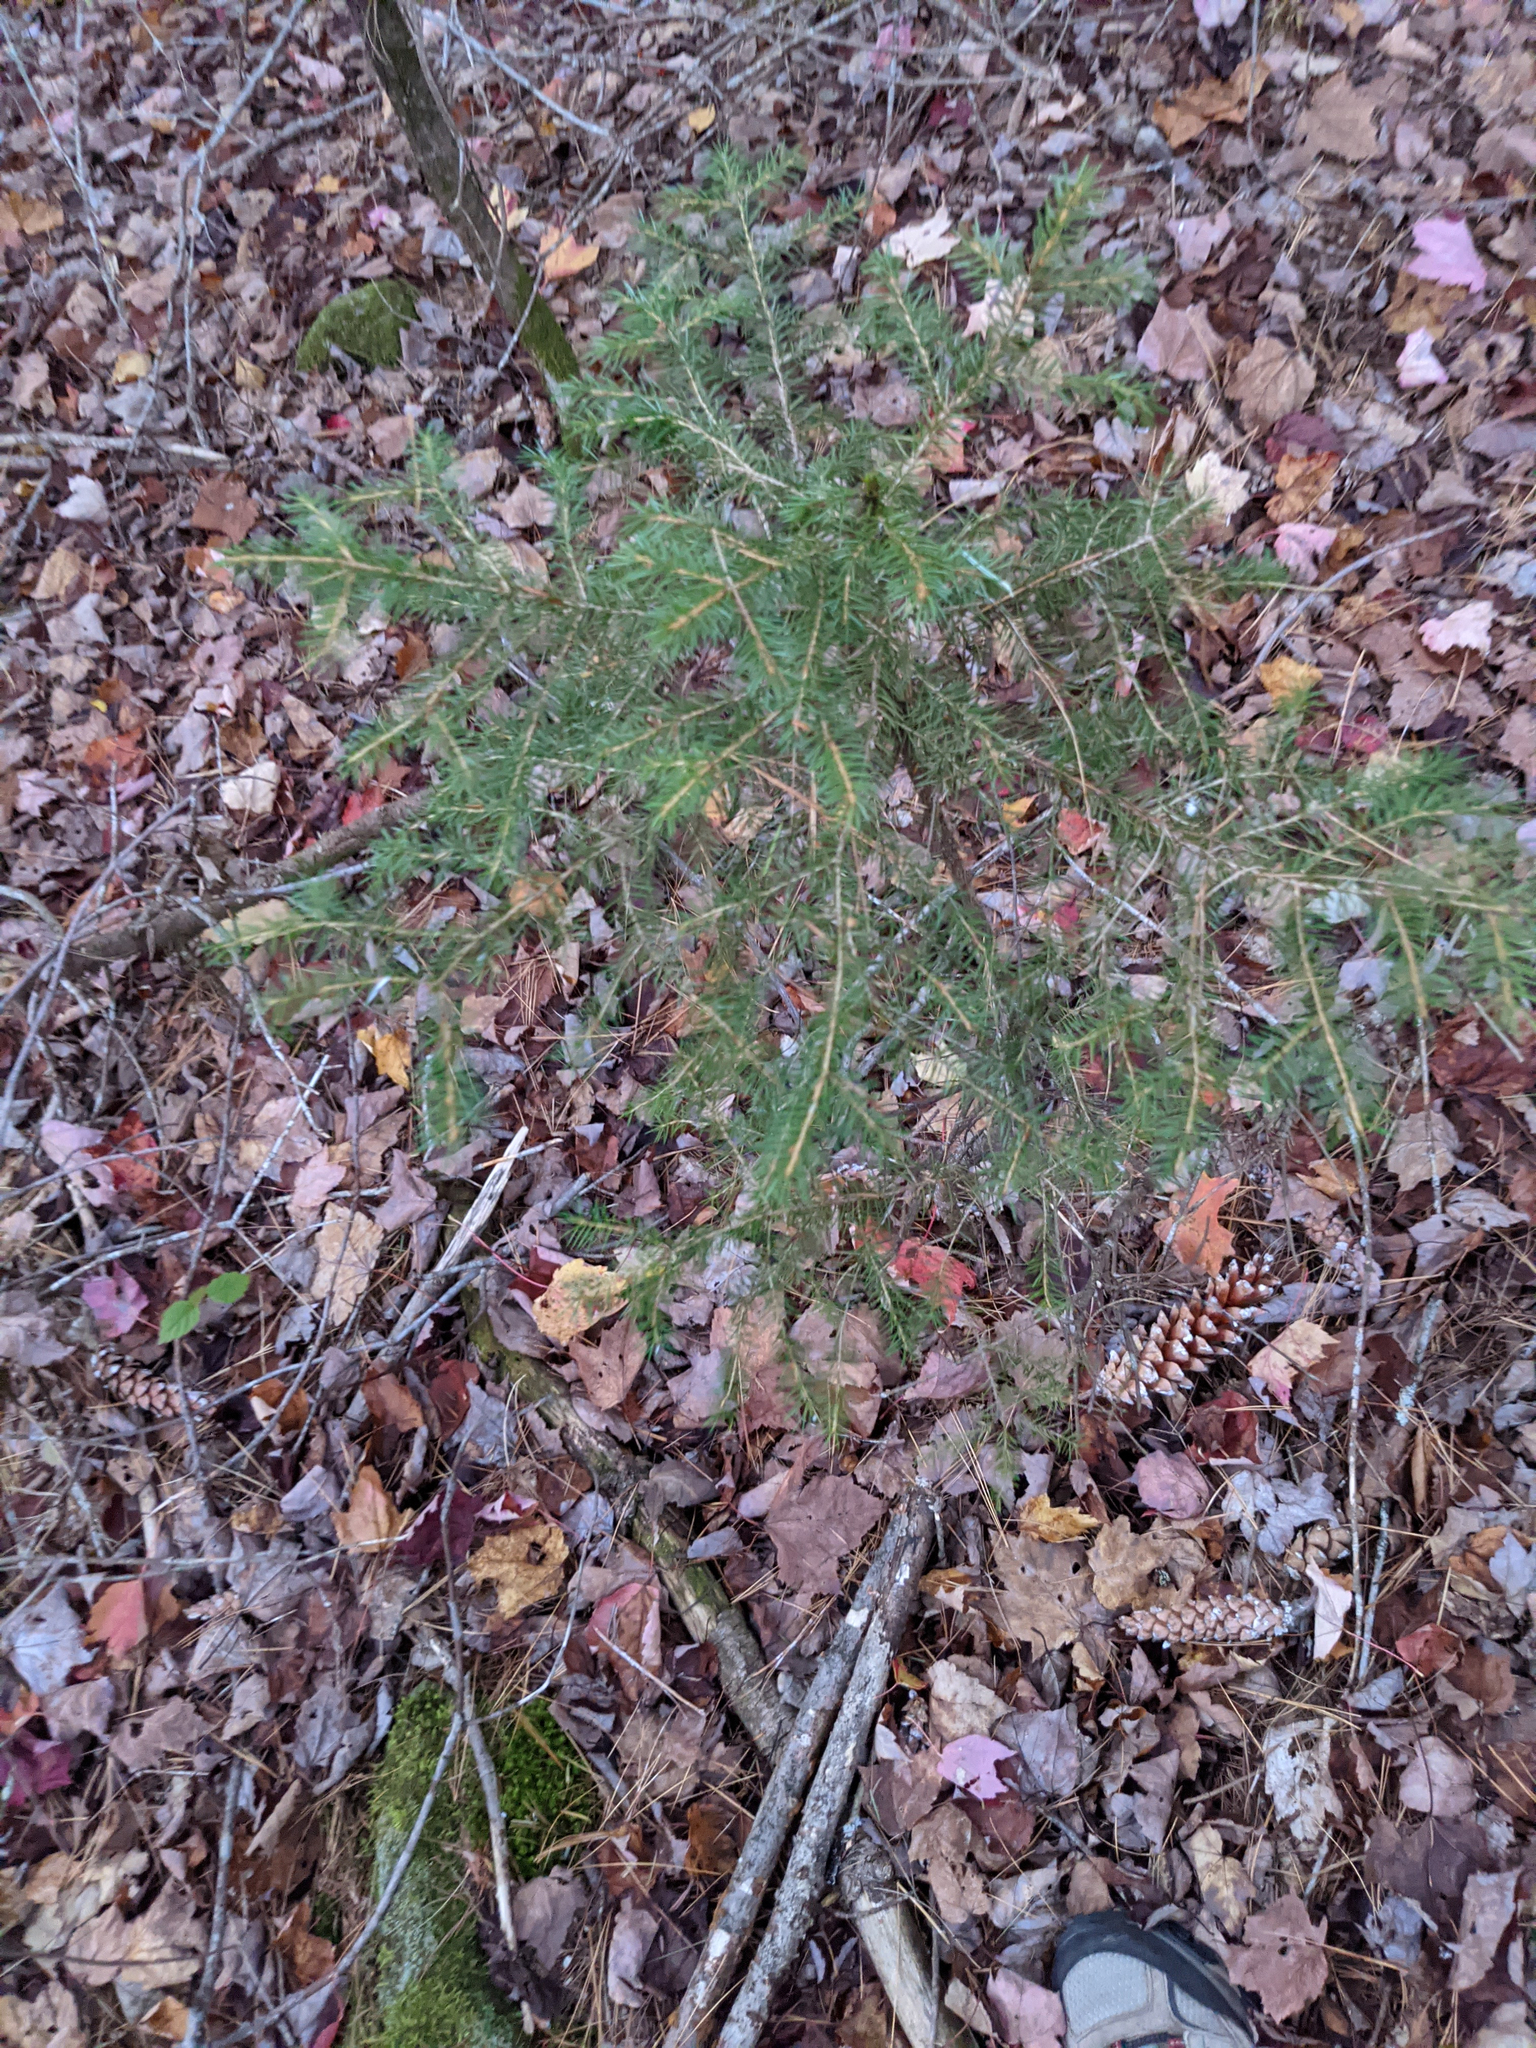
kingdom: Plantae
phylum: Tracheophyta
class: Pinopsida
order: Pinales
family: Pinaceae
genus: Picea
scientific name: Picea rubens
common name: Red spruce
